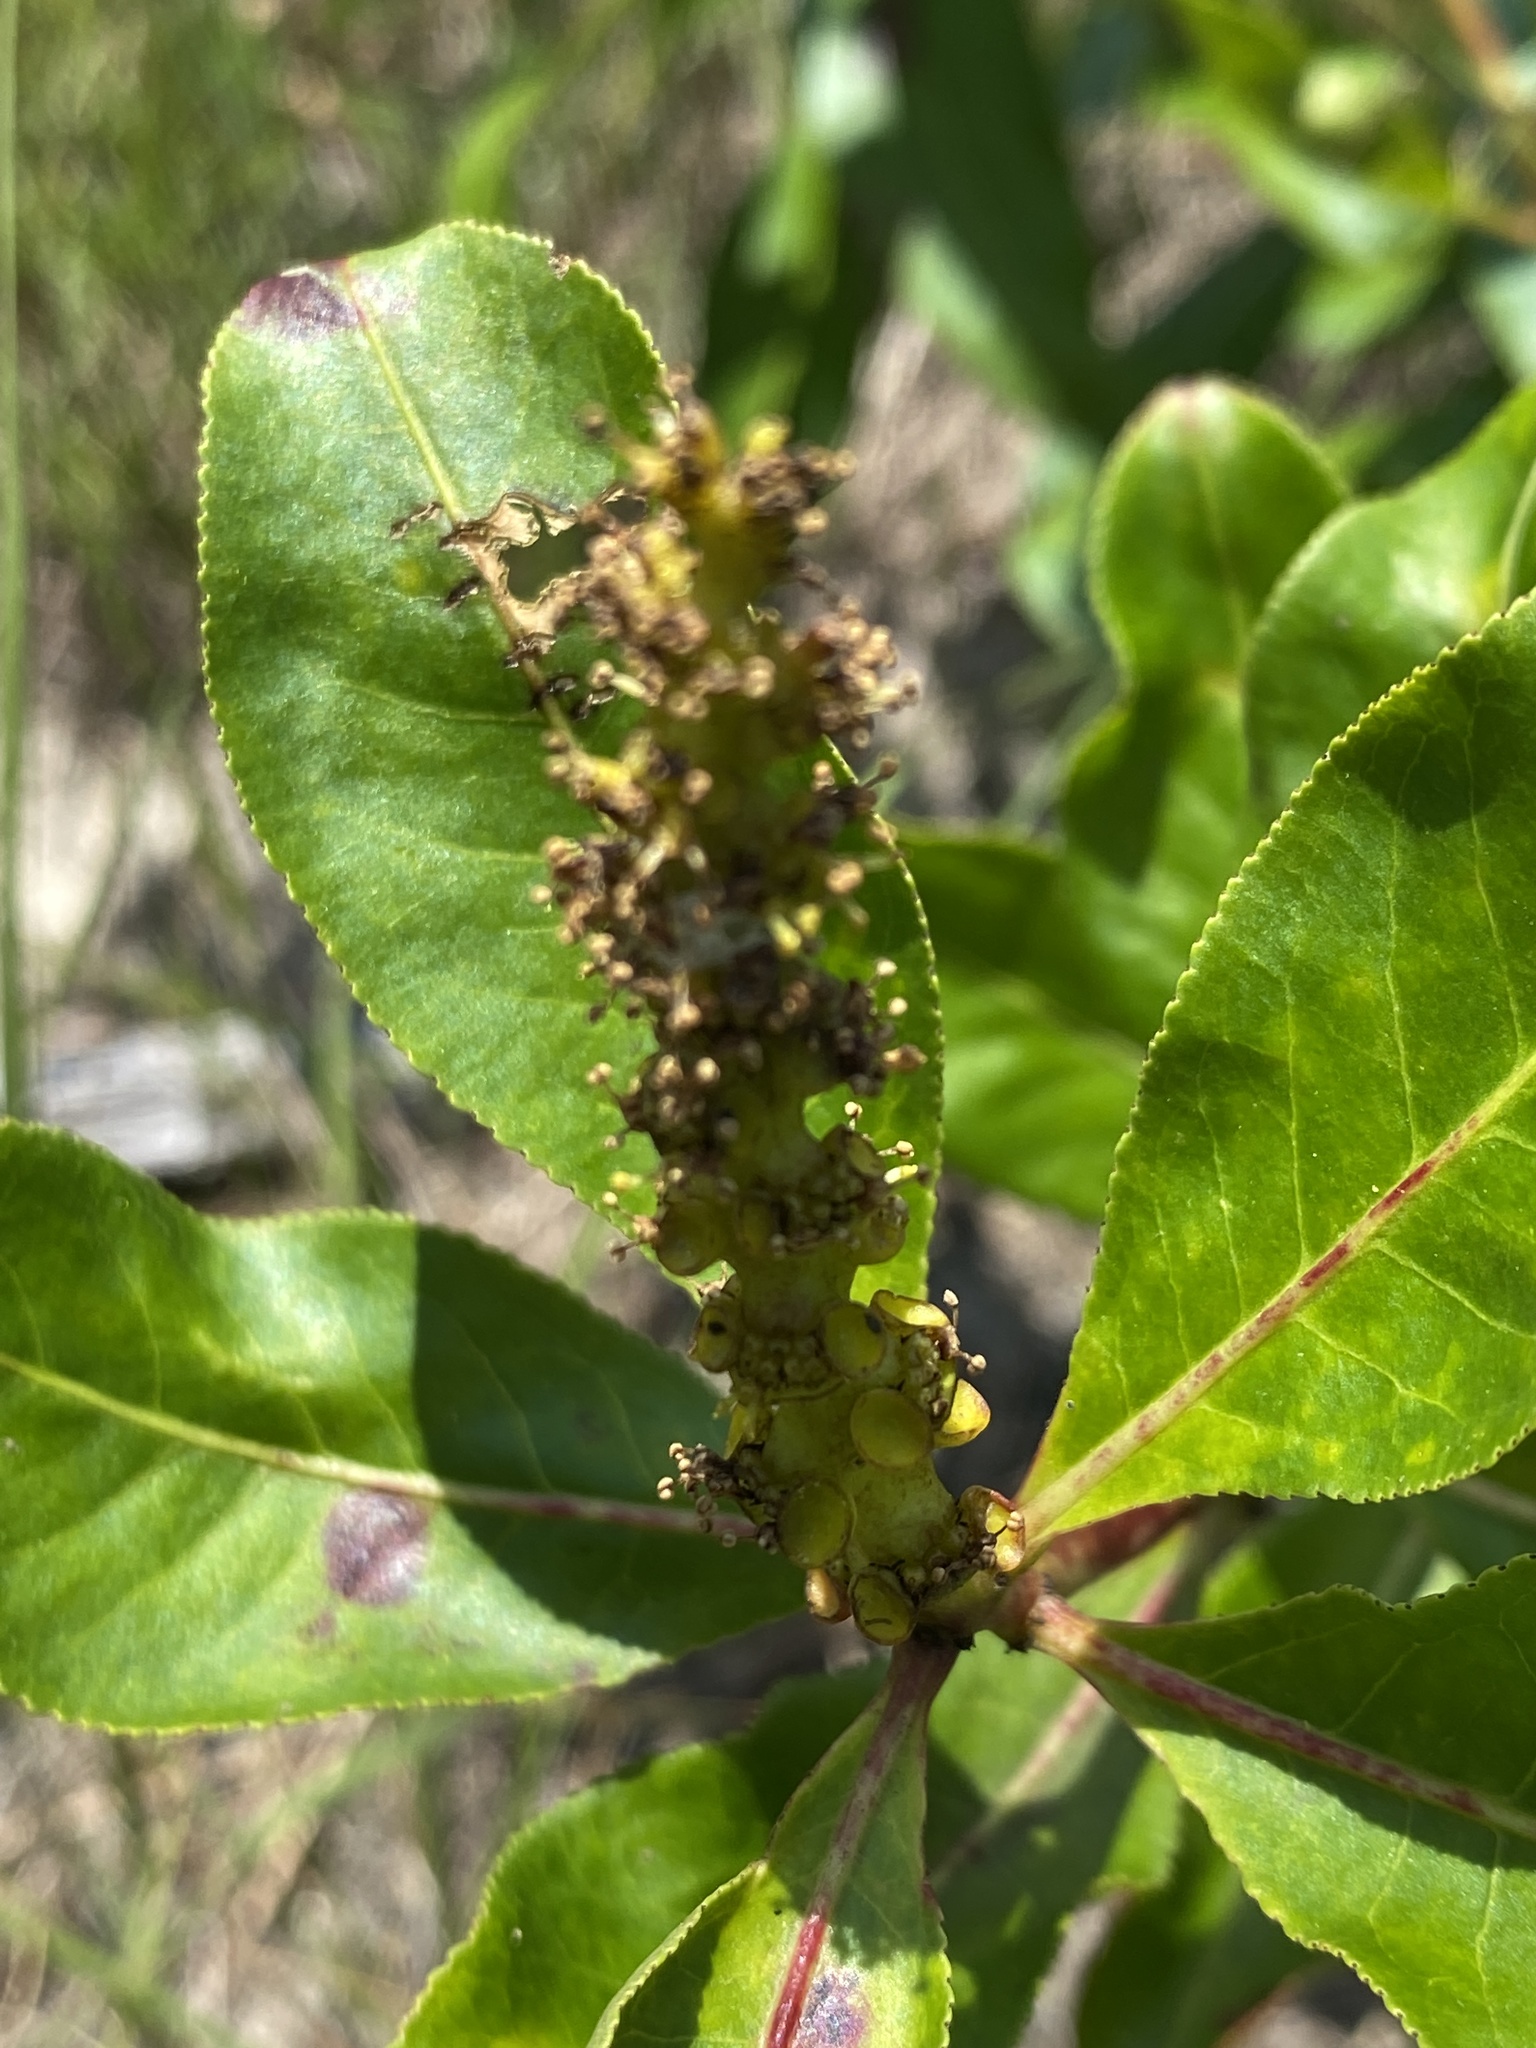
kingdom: Plantae
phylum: Tracheophyta
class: Magnoliopsida
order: Malpighiales
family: Euphorbiaceae
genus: Stillingia
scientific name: Stillingia sylvatica
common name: Queen's-delight
